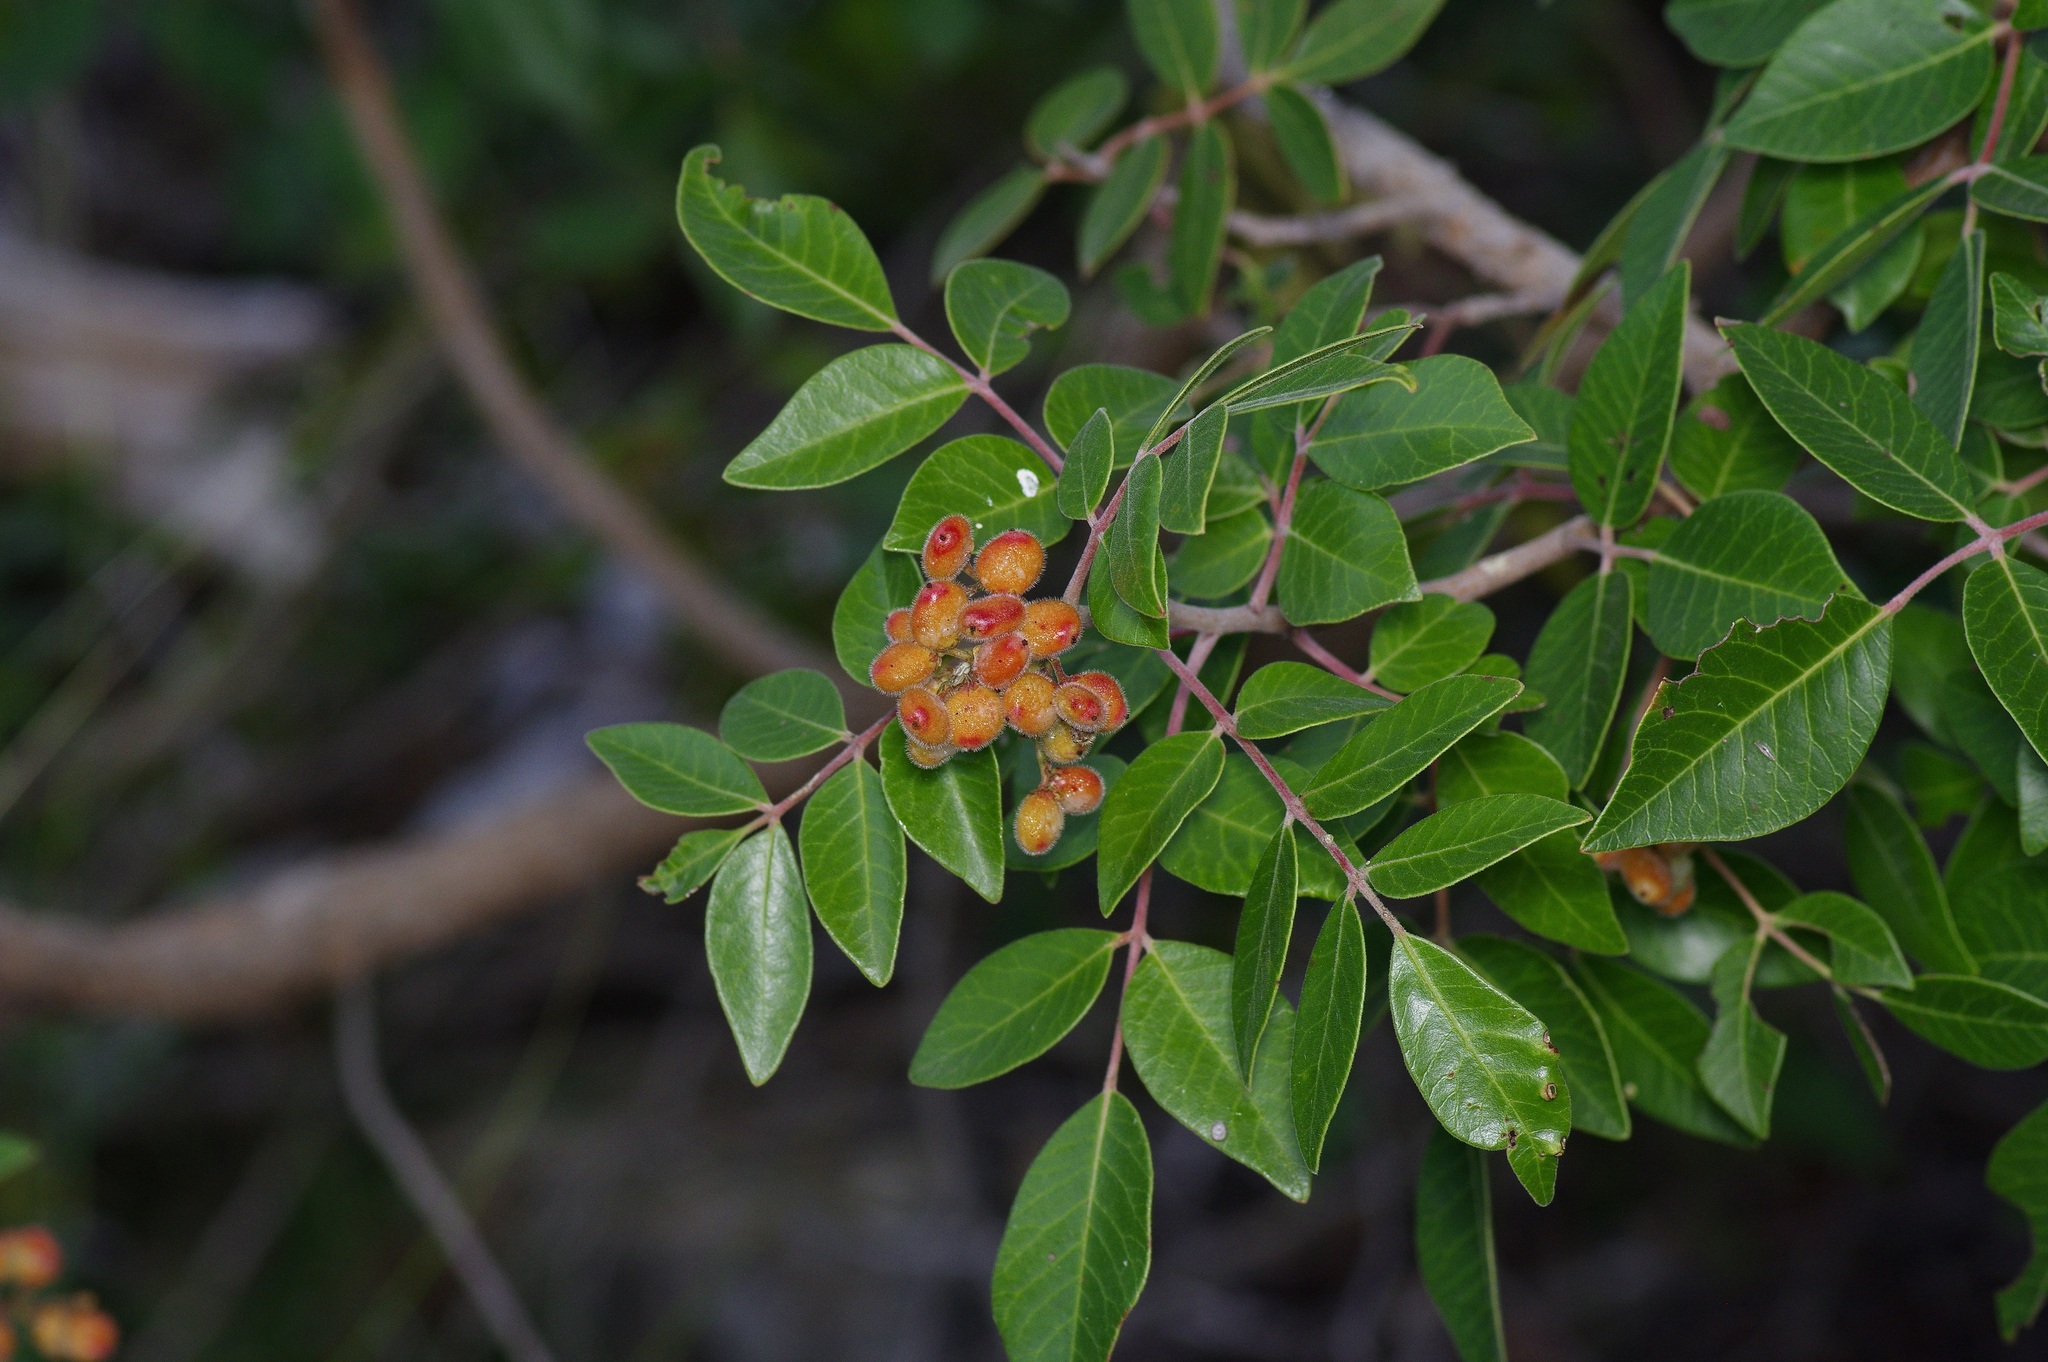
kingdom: Plantae
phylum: Tracheophyta
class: Magnoliopsida
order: Sapindales
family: Anacardiaceae
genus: Rhus
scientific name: Rhus virens
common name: Evergreen sumac
